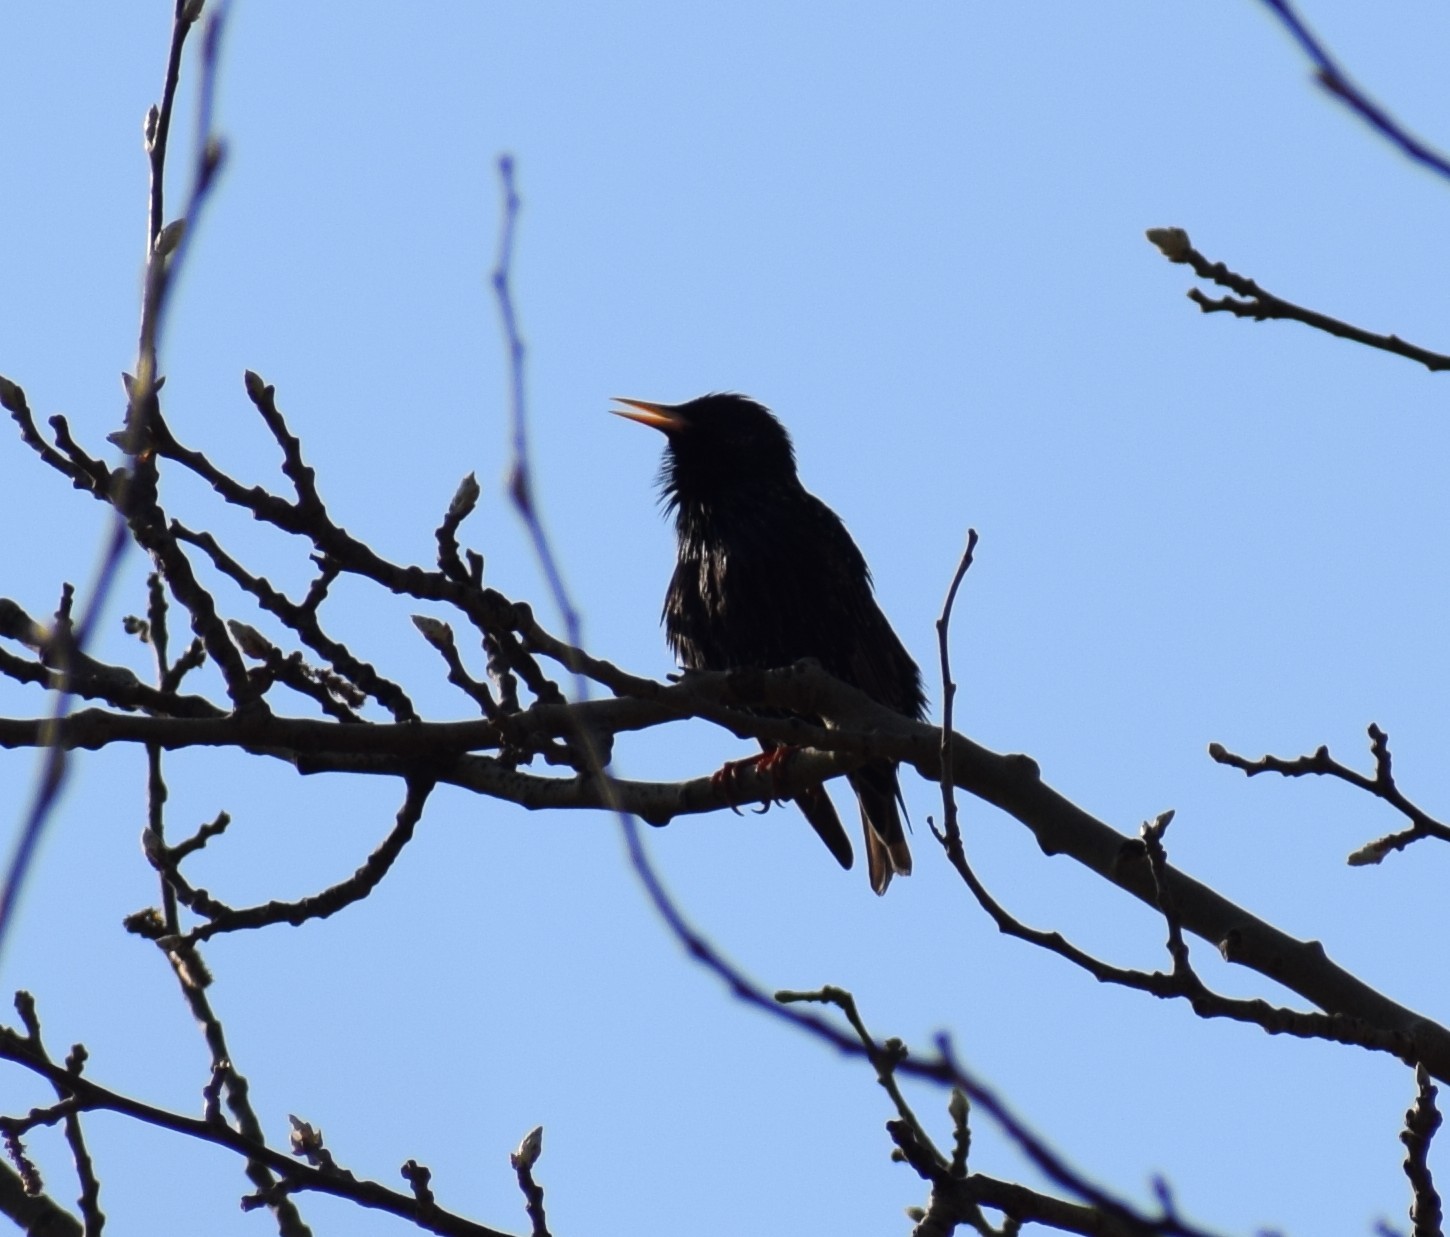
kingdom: Animalia
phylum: Chordata
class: Aves
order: Passeriformes
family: Sturnidae
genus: Sturnus
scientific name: Sturnus vulgaris
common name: Common starling
